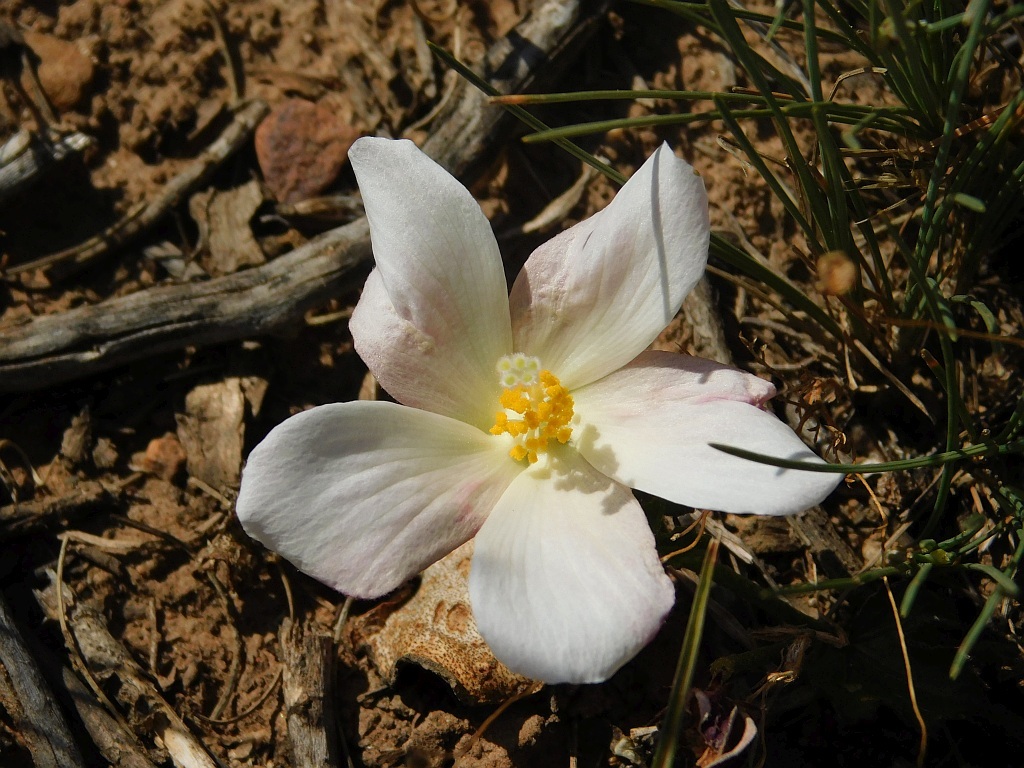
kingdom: Plantae
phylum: Tracheophyta
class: Magnoliopsida
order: Malvales
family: Malvaceae
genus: Hibiscus
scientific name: Hibiscus pusillus
